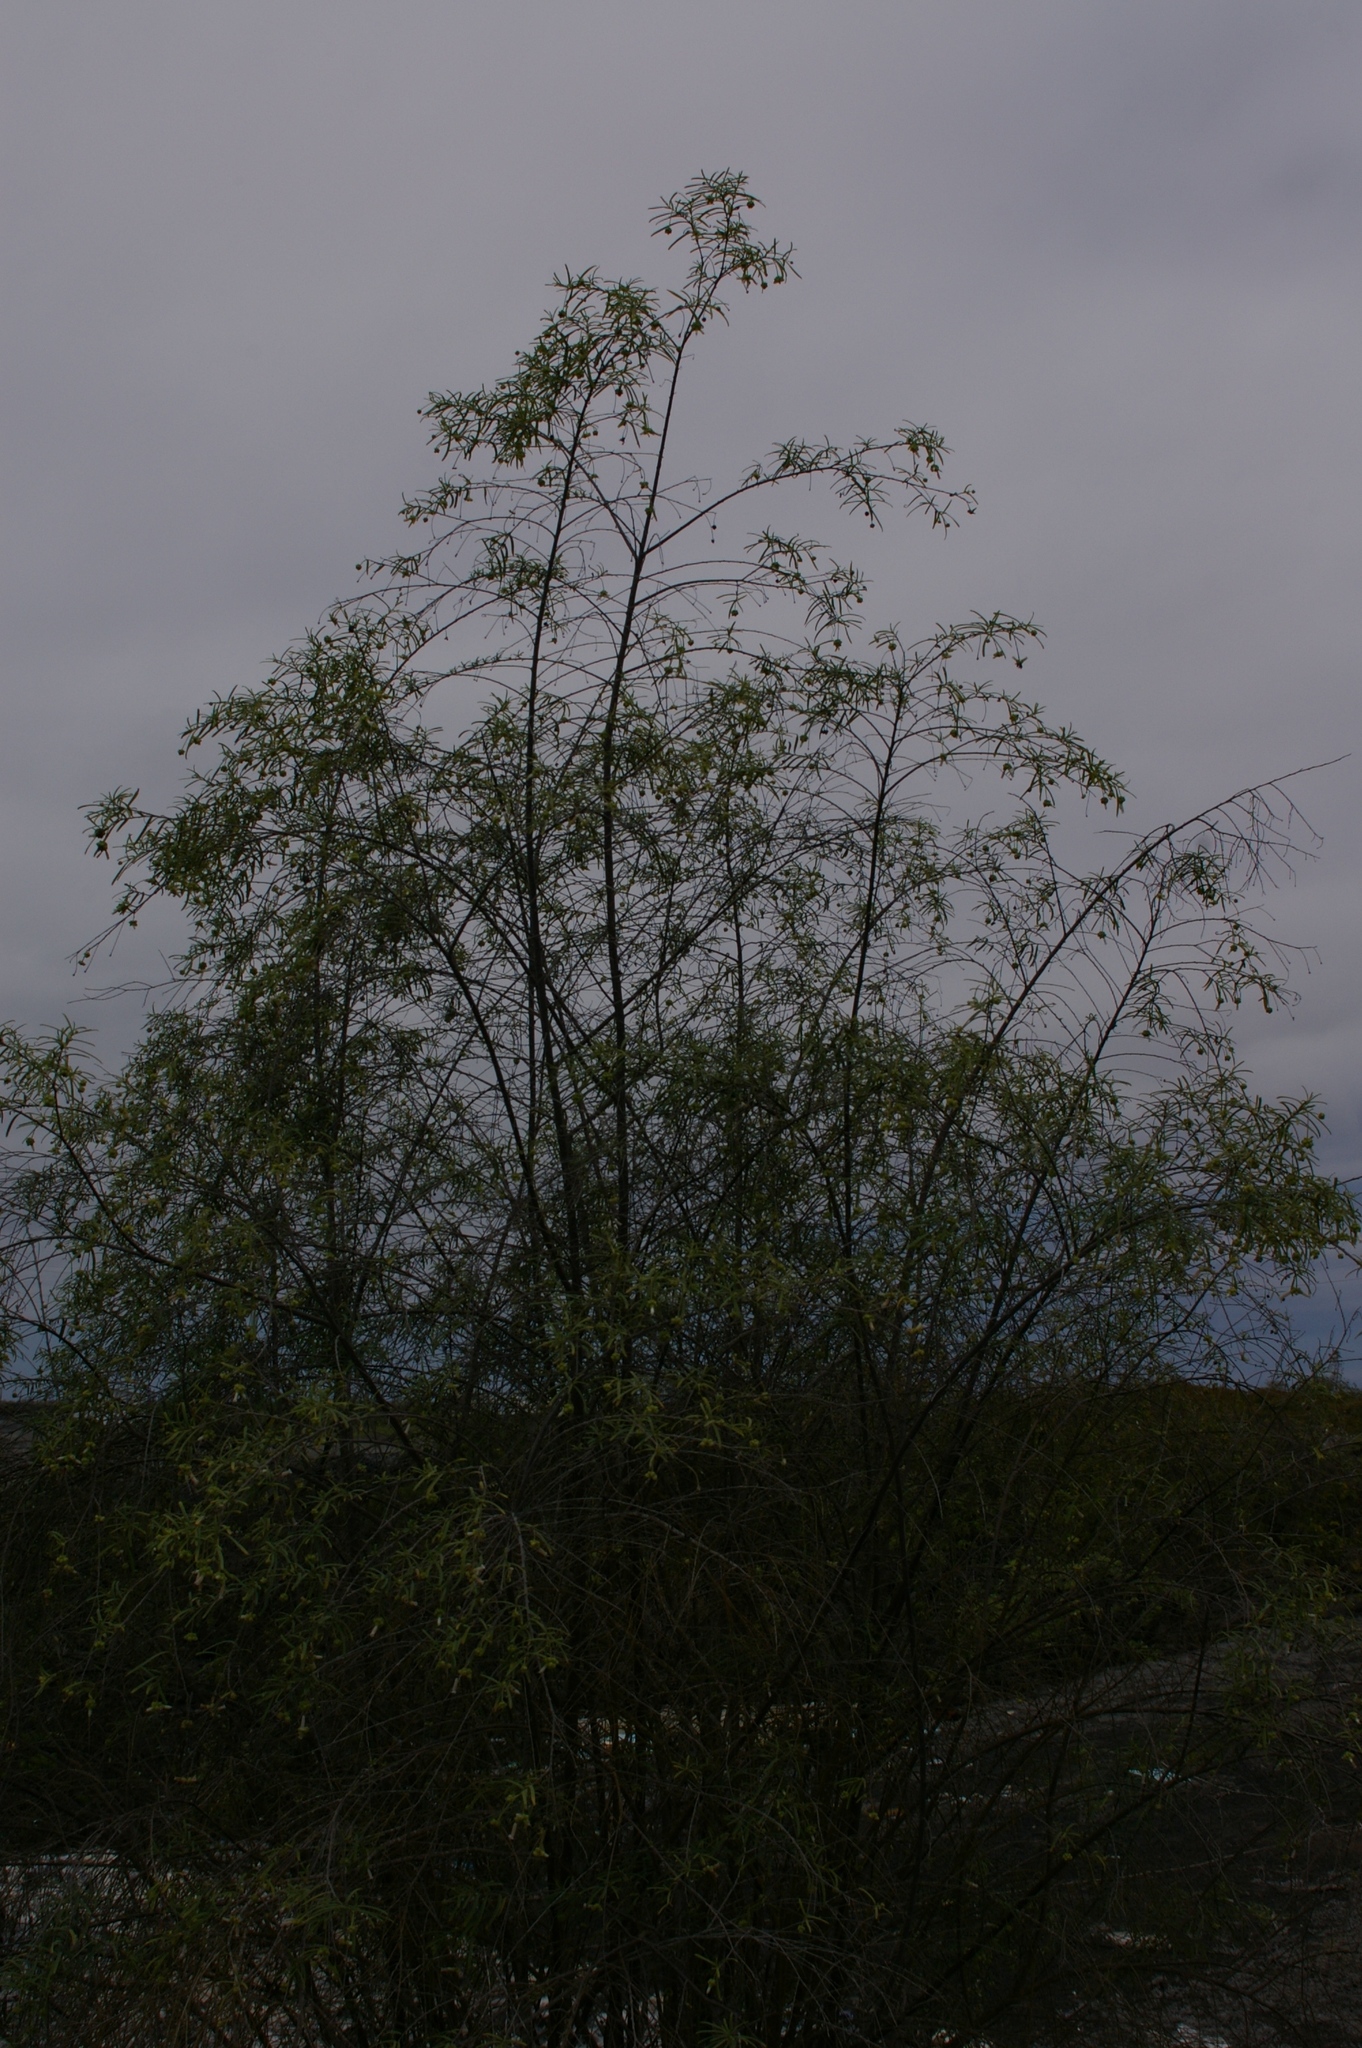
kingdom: Plantae
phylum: Tracheophyta
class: Magnoliopsida
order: Boraginales
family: Cordiaceae
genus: Varronia
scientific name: Varronia revoluta
